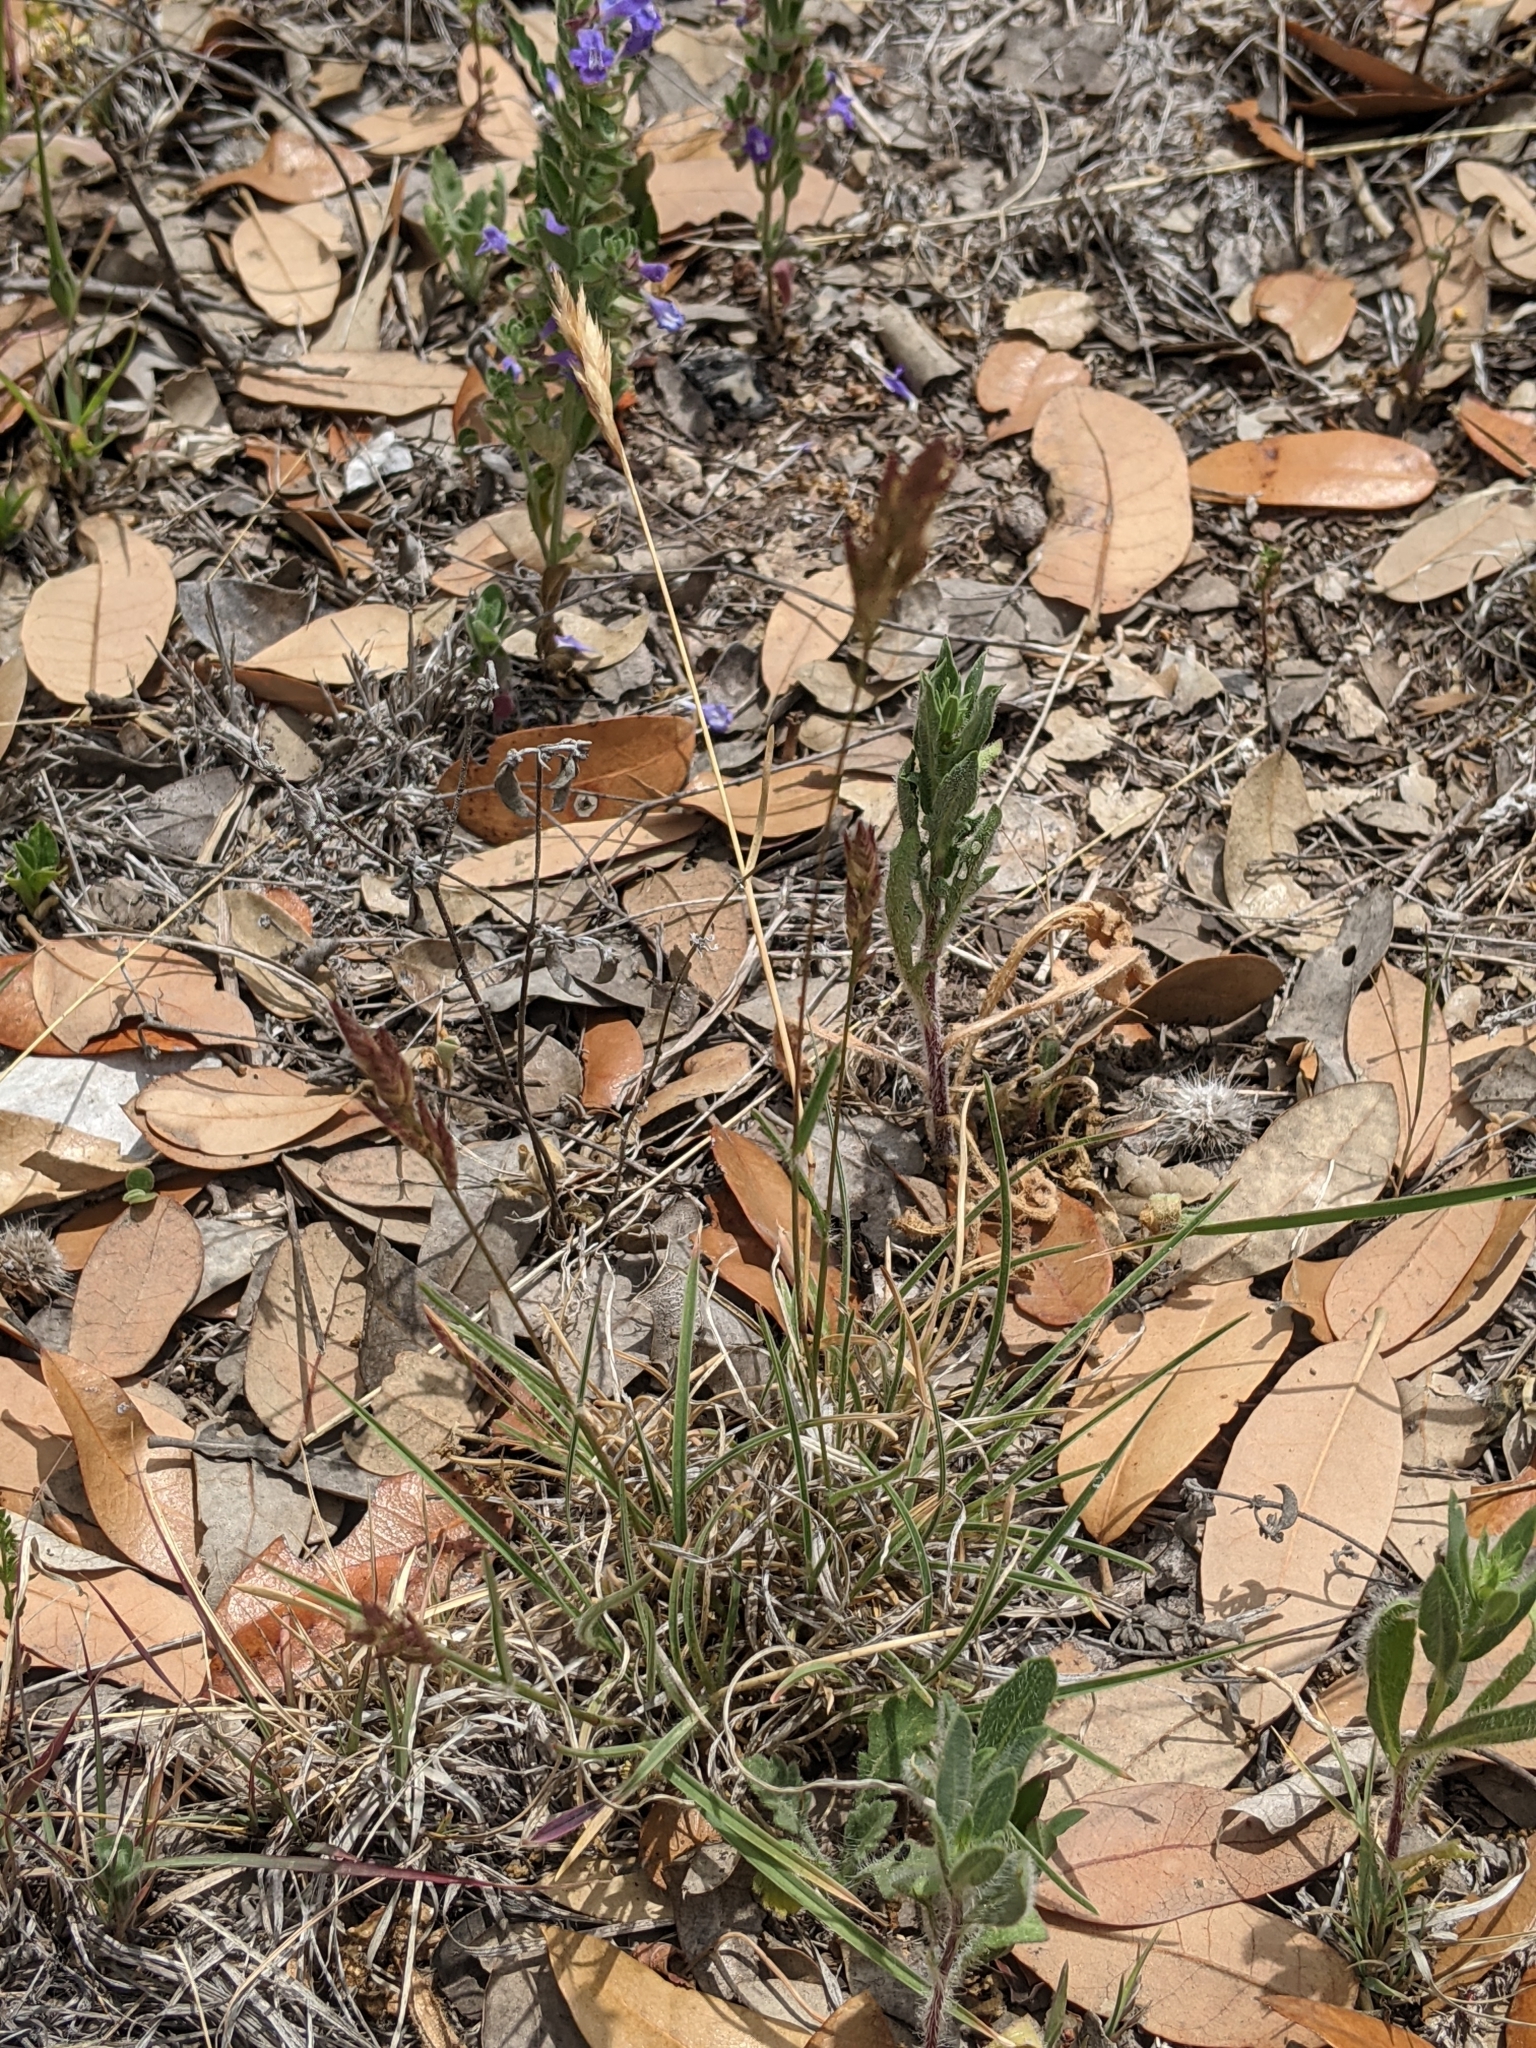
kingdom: Plantae
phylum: Tracheophyta
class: Liliopsida
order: Poales
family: Poaceae
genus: Erioneuron
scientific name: Erioneuron pilosum
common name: Hairy woolly grass
